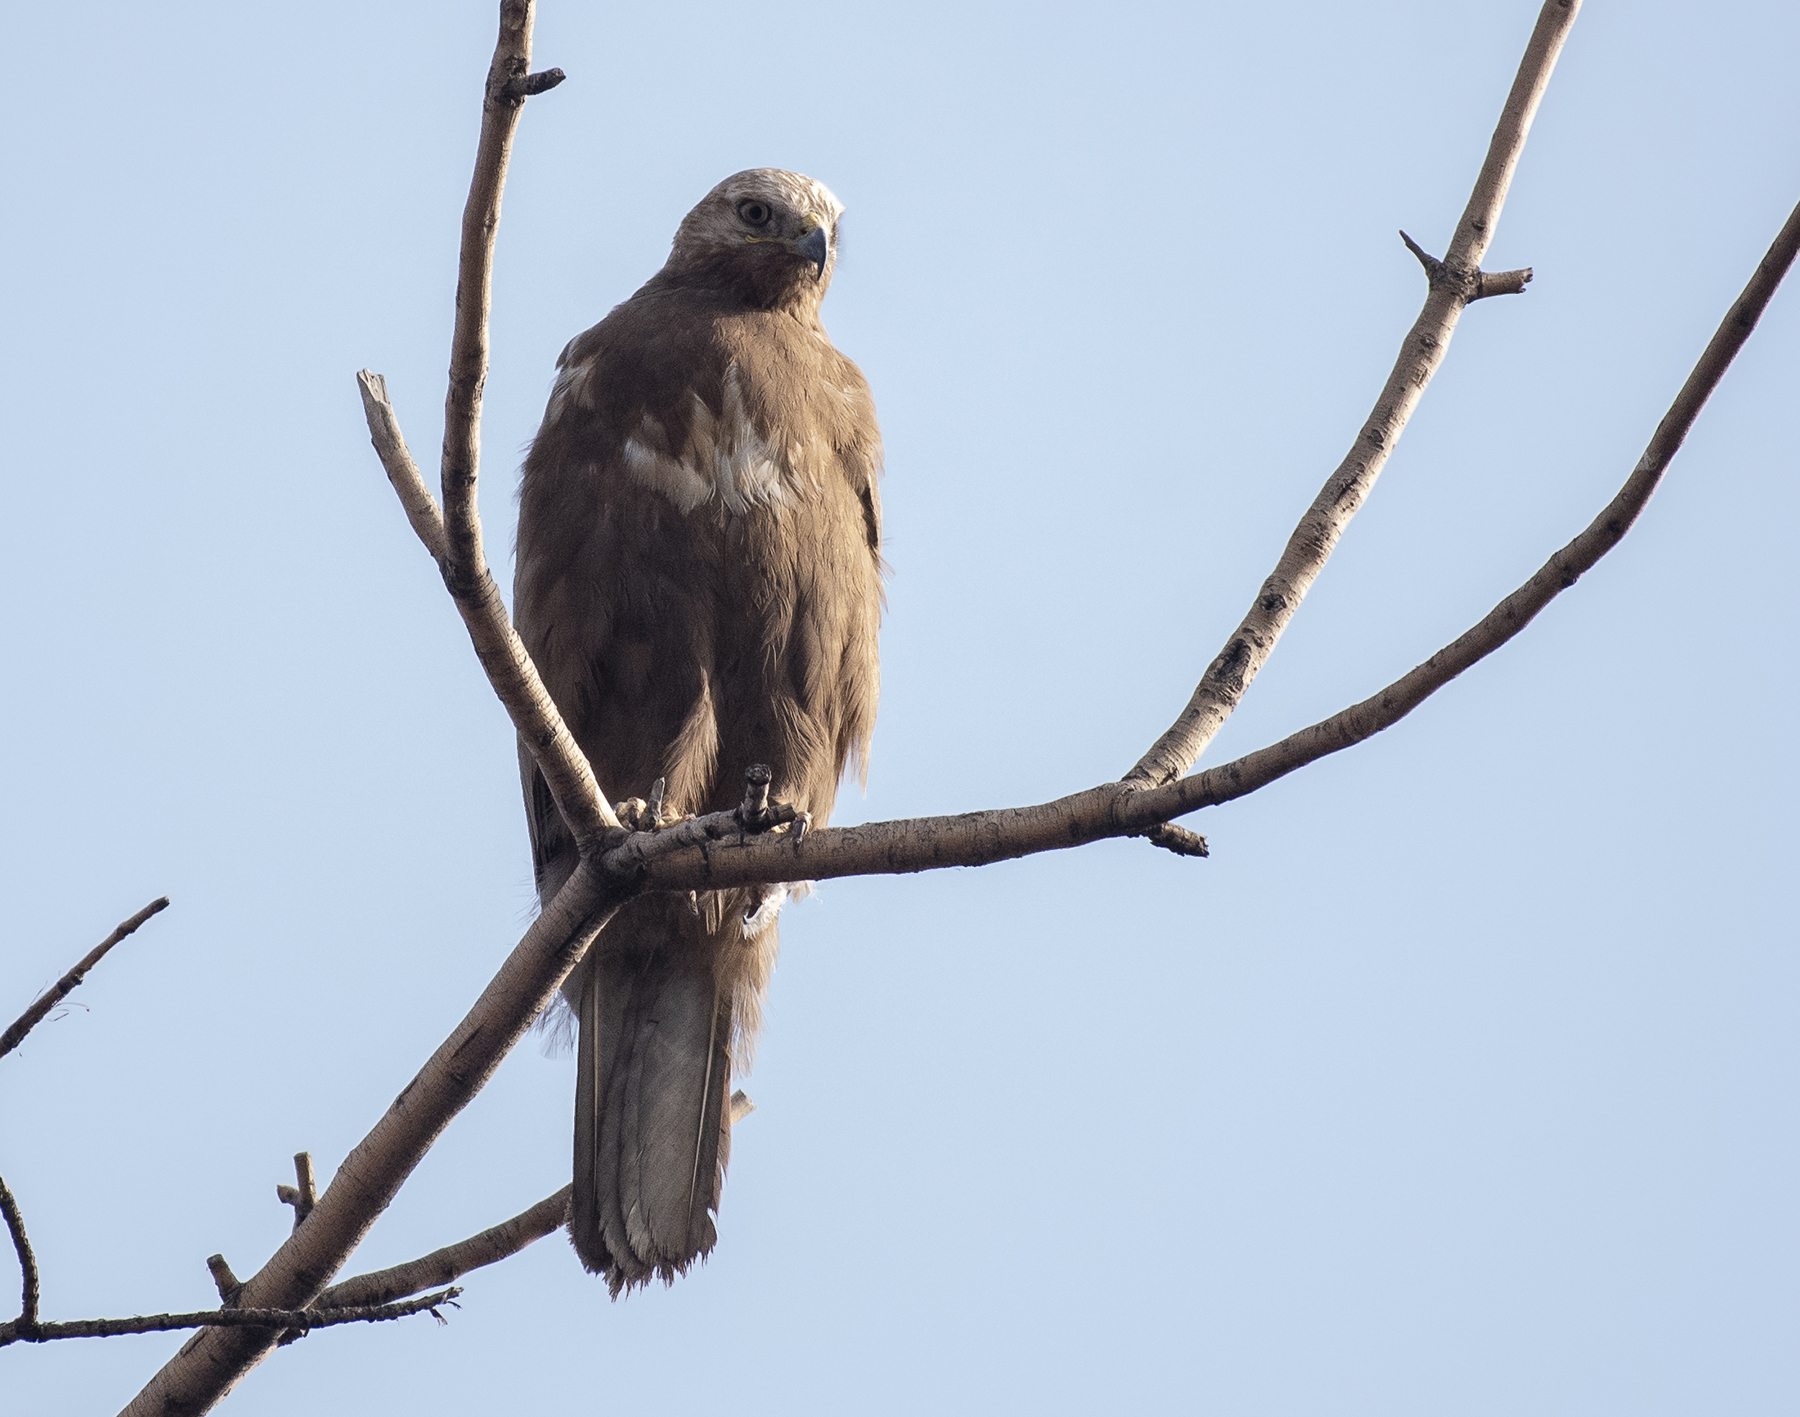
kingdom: Animalia
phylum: Chordata
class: Aves
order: Accipitriformes
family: Accipitridae
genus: Buteo
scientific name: Buteo rufinus
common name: Long-legged buzzard
